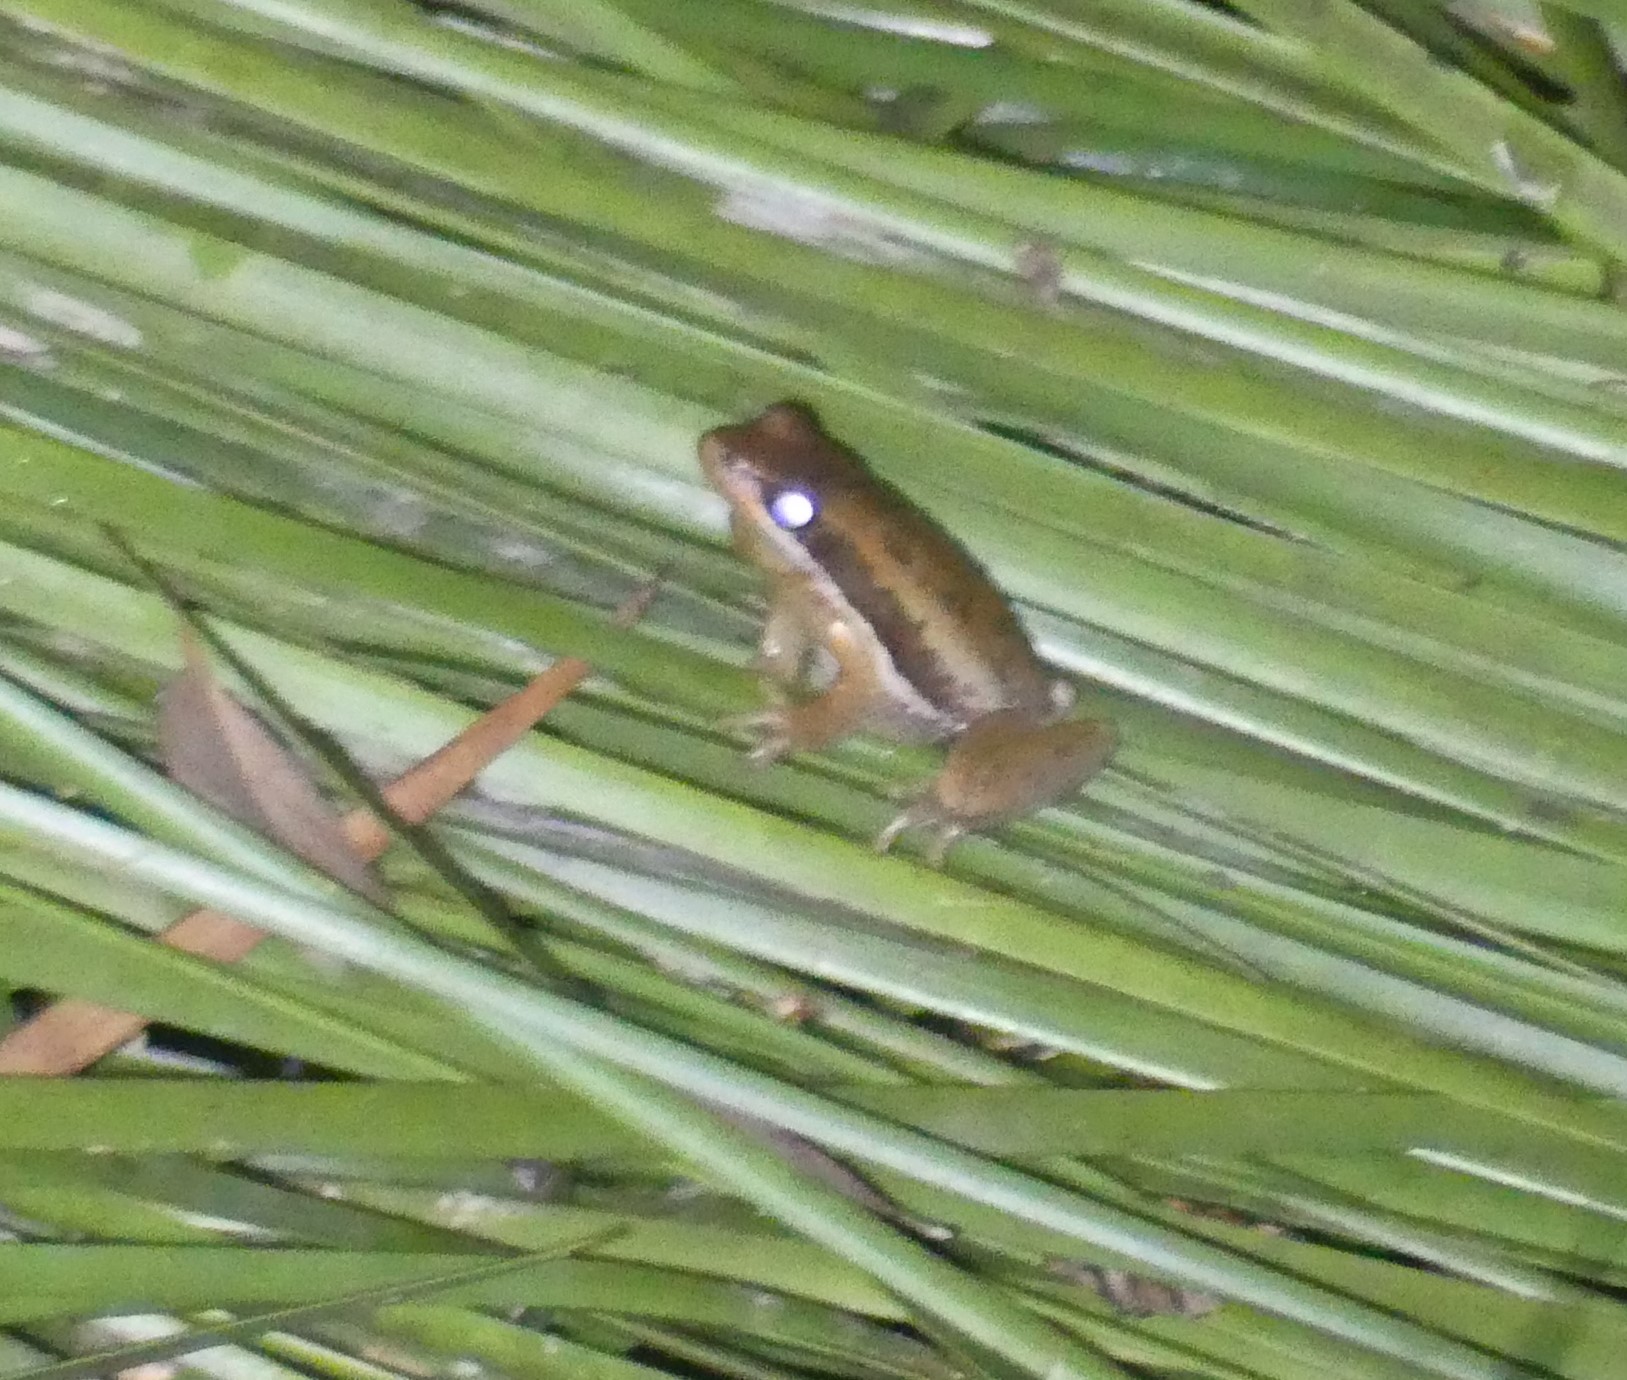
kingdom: Animalia
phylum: Chordata
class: Amphibia
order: Anura
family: Pelodryadidae
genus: Litoria
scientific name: Litoria adelaidensis
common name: Slender tree frog
